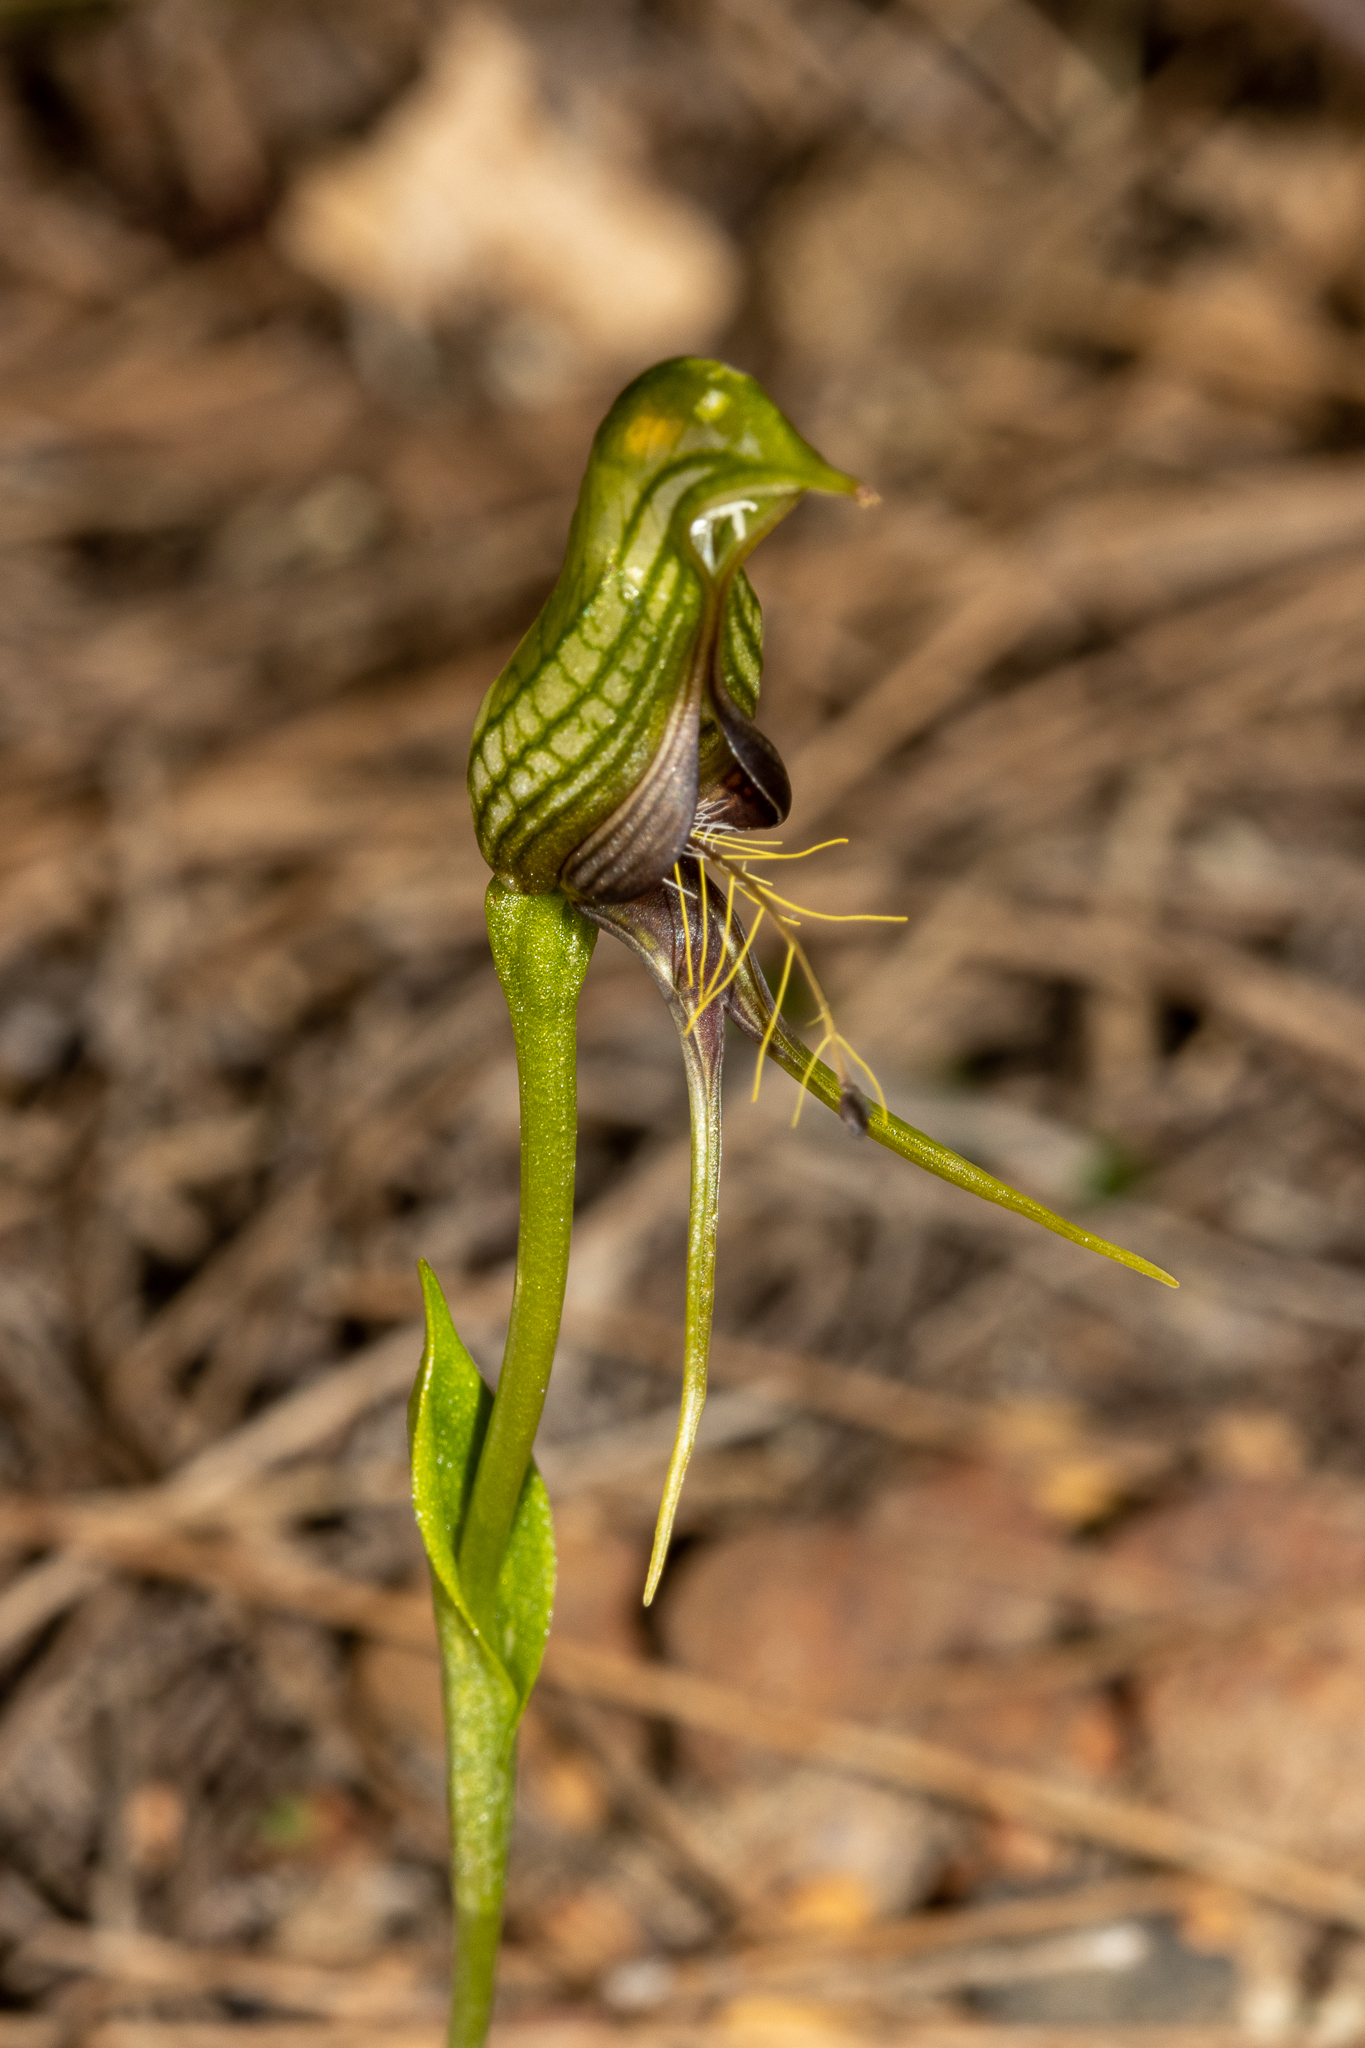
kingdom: Plantae
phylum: Tracheophyta
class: Liliopsida
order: Asparagales
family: Orchidaceae
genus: Pterostylis
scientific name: Pterostylis barbata
